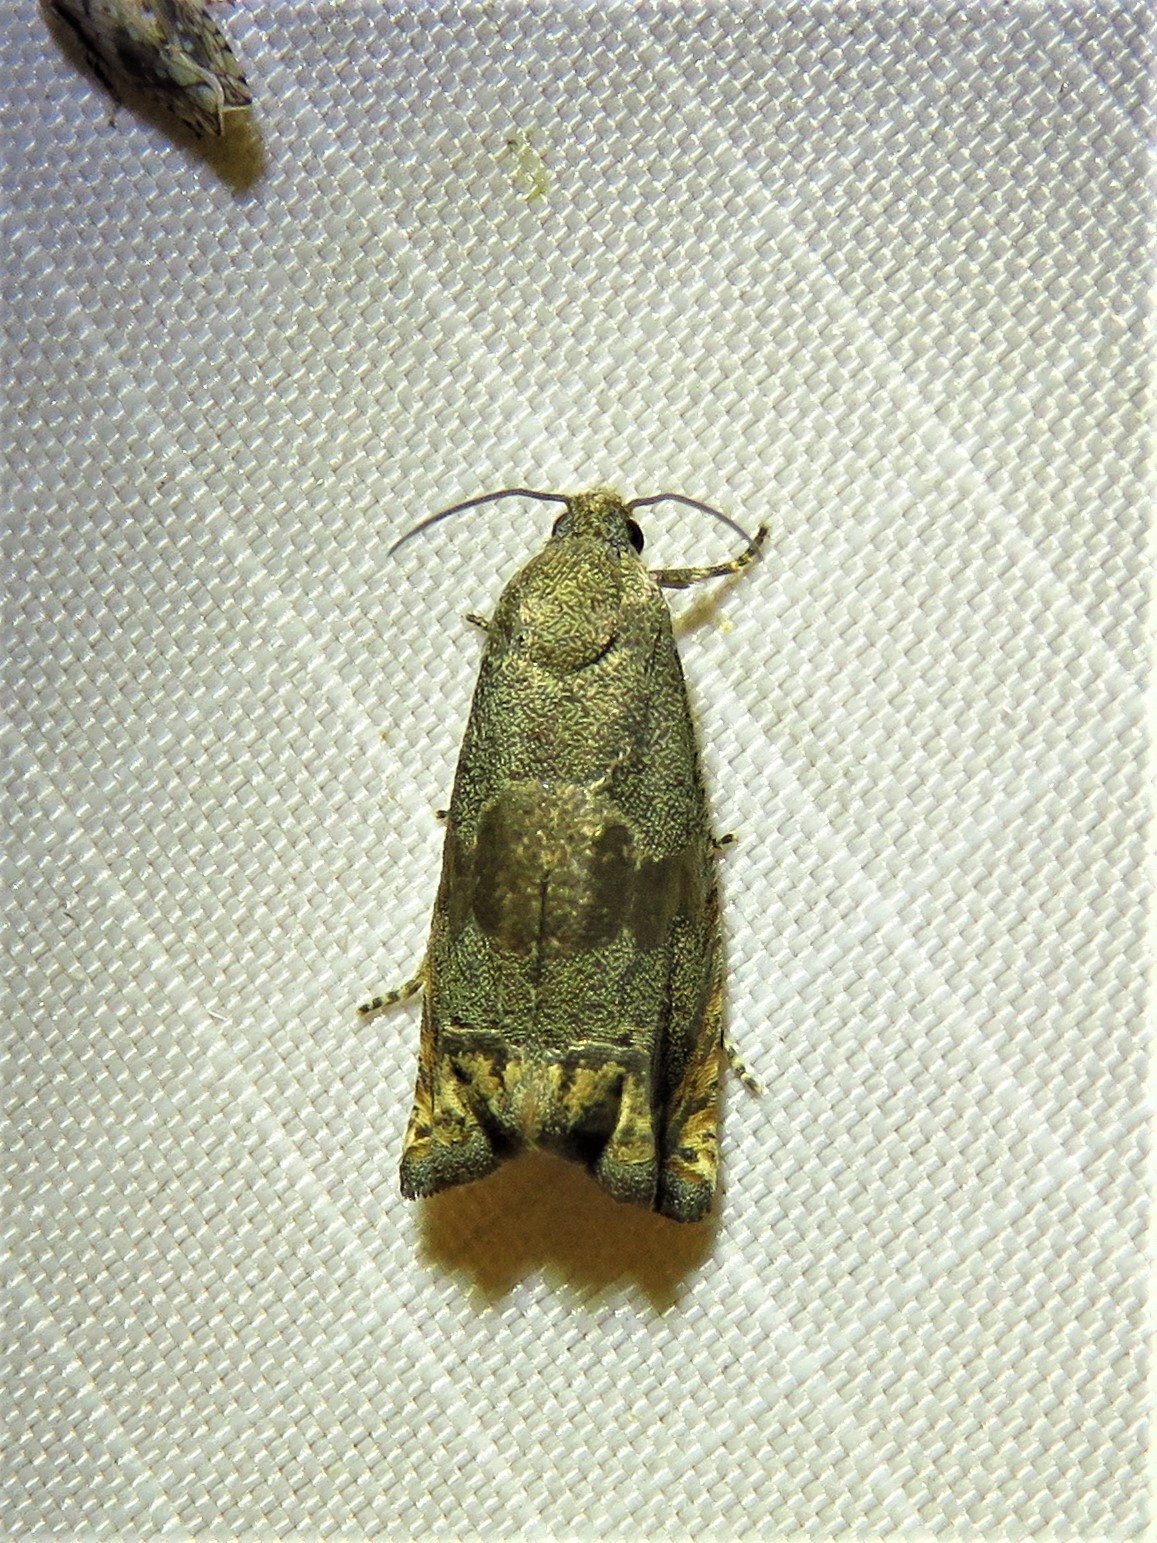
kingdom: Animalia
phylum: Arthropoda
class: Insecta
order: Lepidoptera
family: Tortricidae
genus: Epiblema
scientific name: Epiblema strenuana
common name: Ragweed borer moth
